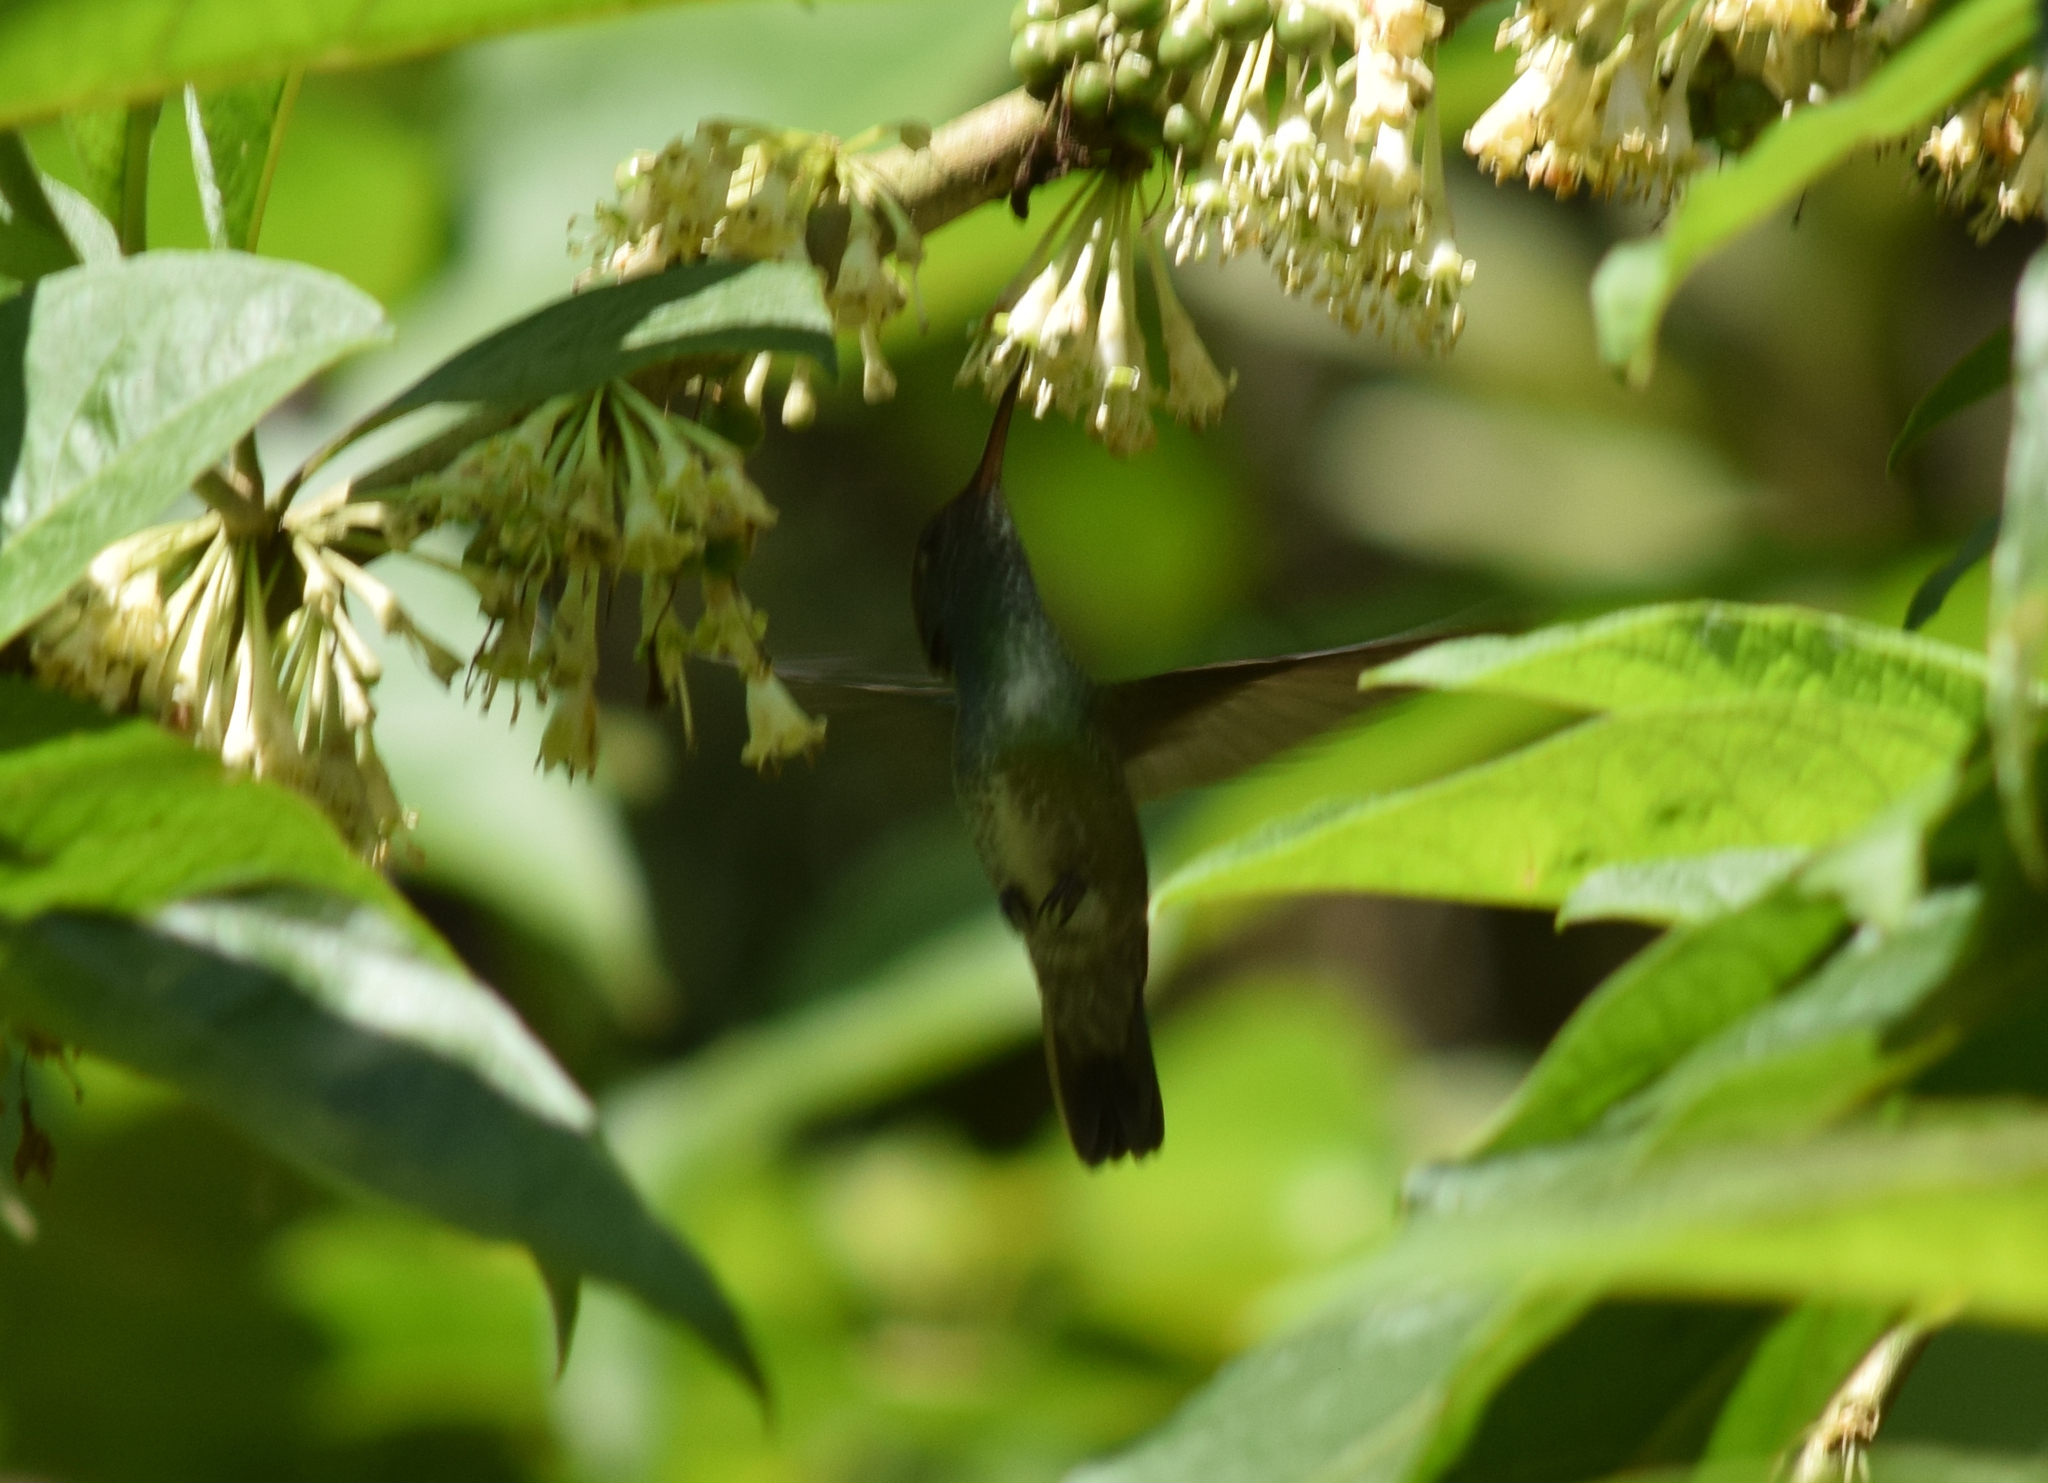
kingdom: Animalia
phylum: Chordata
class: Aves
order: Apodiformes
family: Trochilidae
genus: Chrysuronia
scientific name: Chrysuronia versicolor
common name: Versicolored emerald
